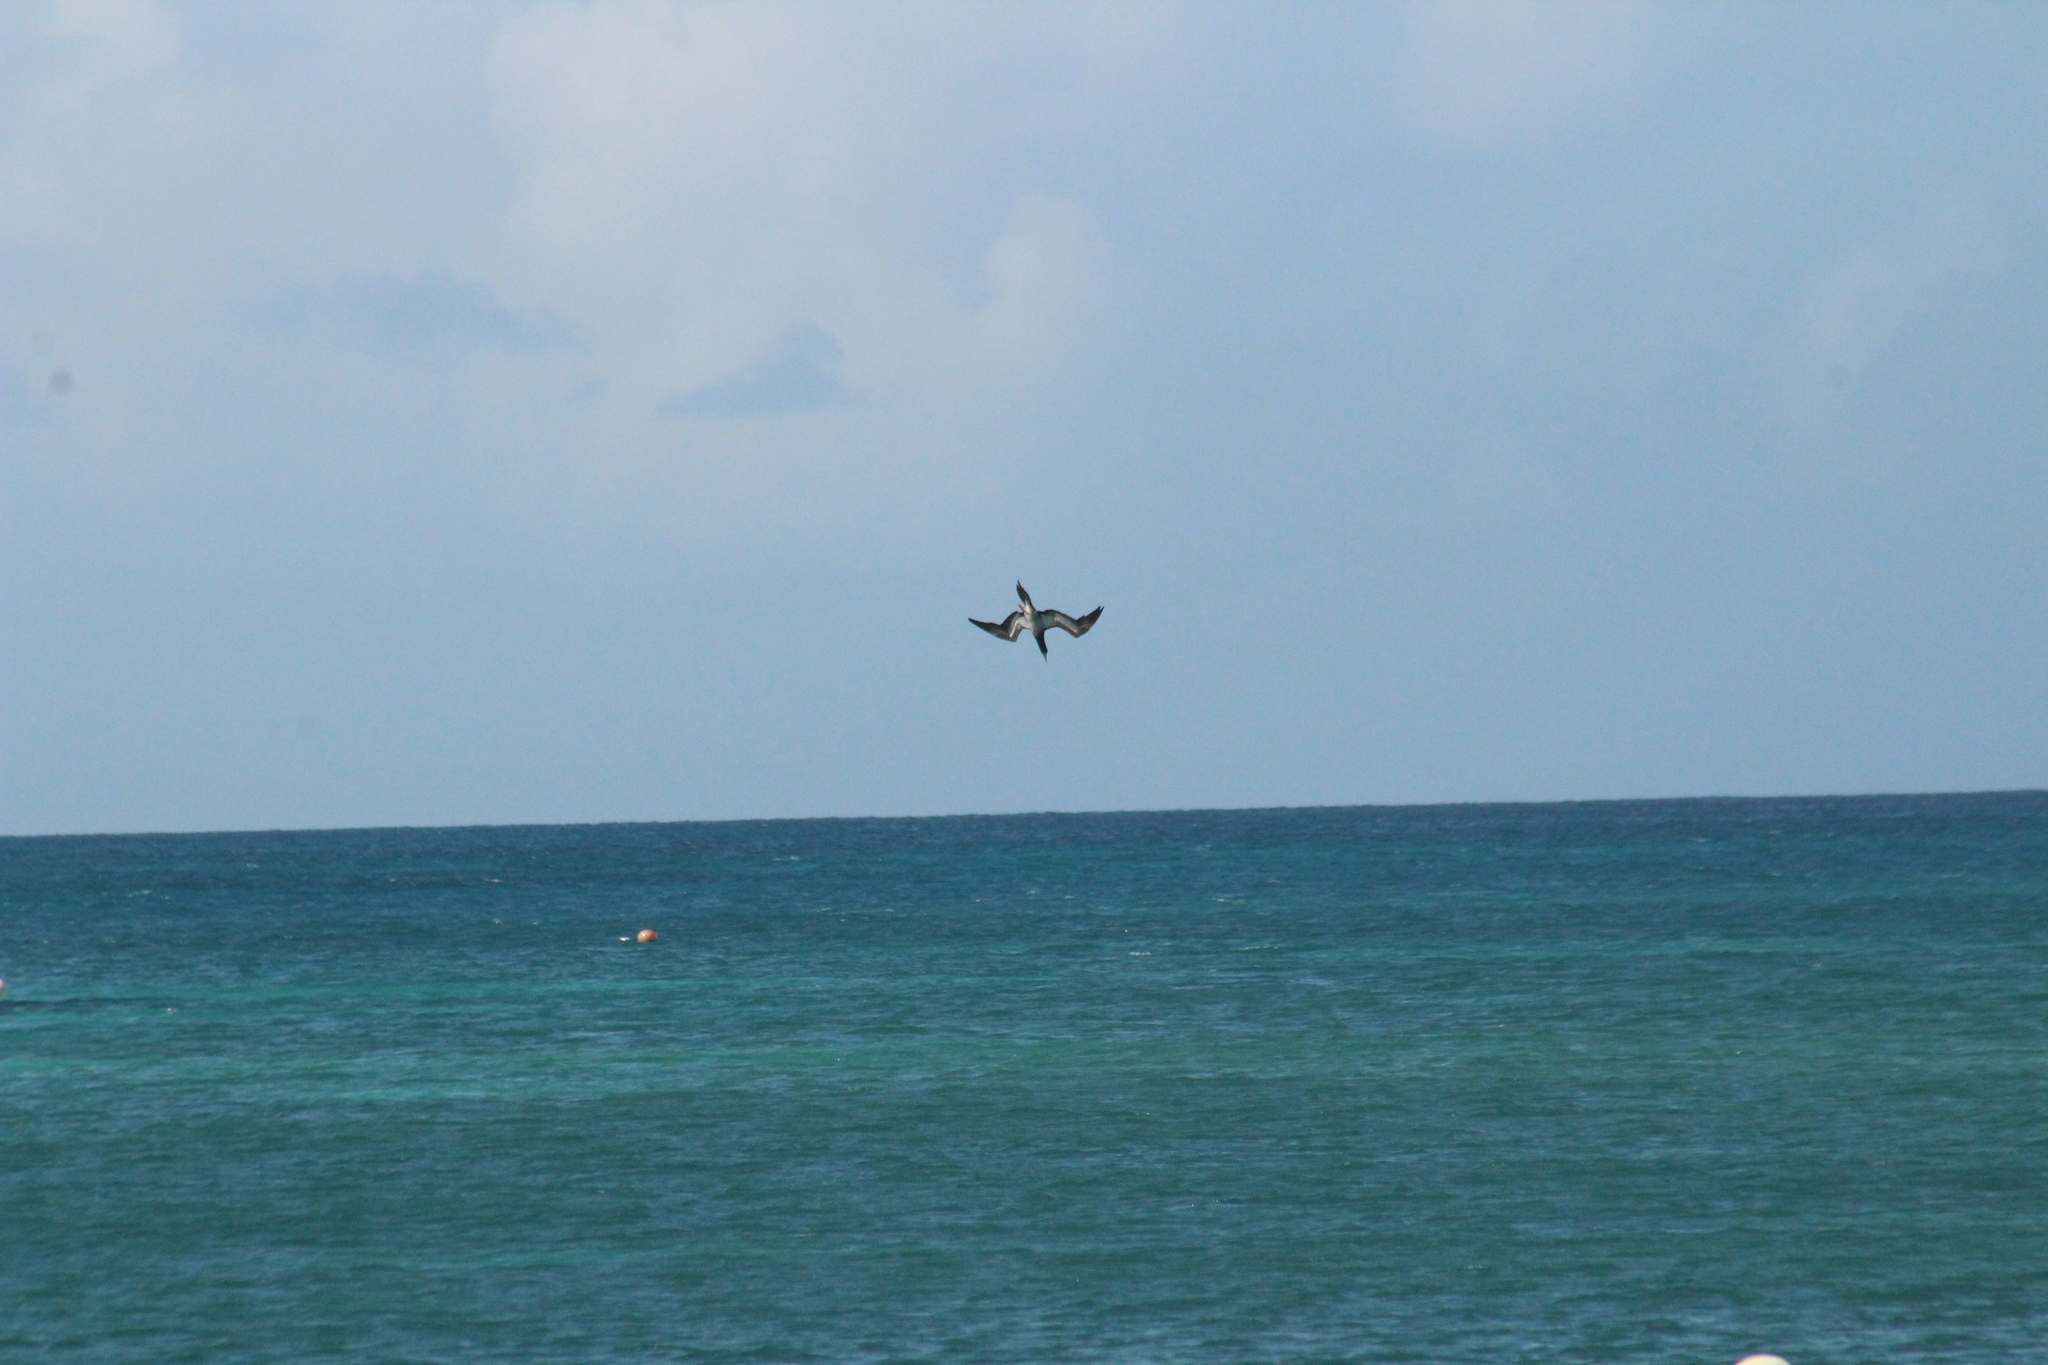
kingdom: Animalia
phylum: Chordata
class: Aves
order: Suliformes
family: Sulidae
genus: Sula
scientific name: Sula leucogaster
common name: Brown booby
